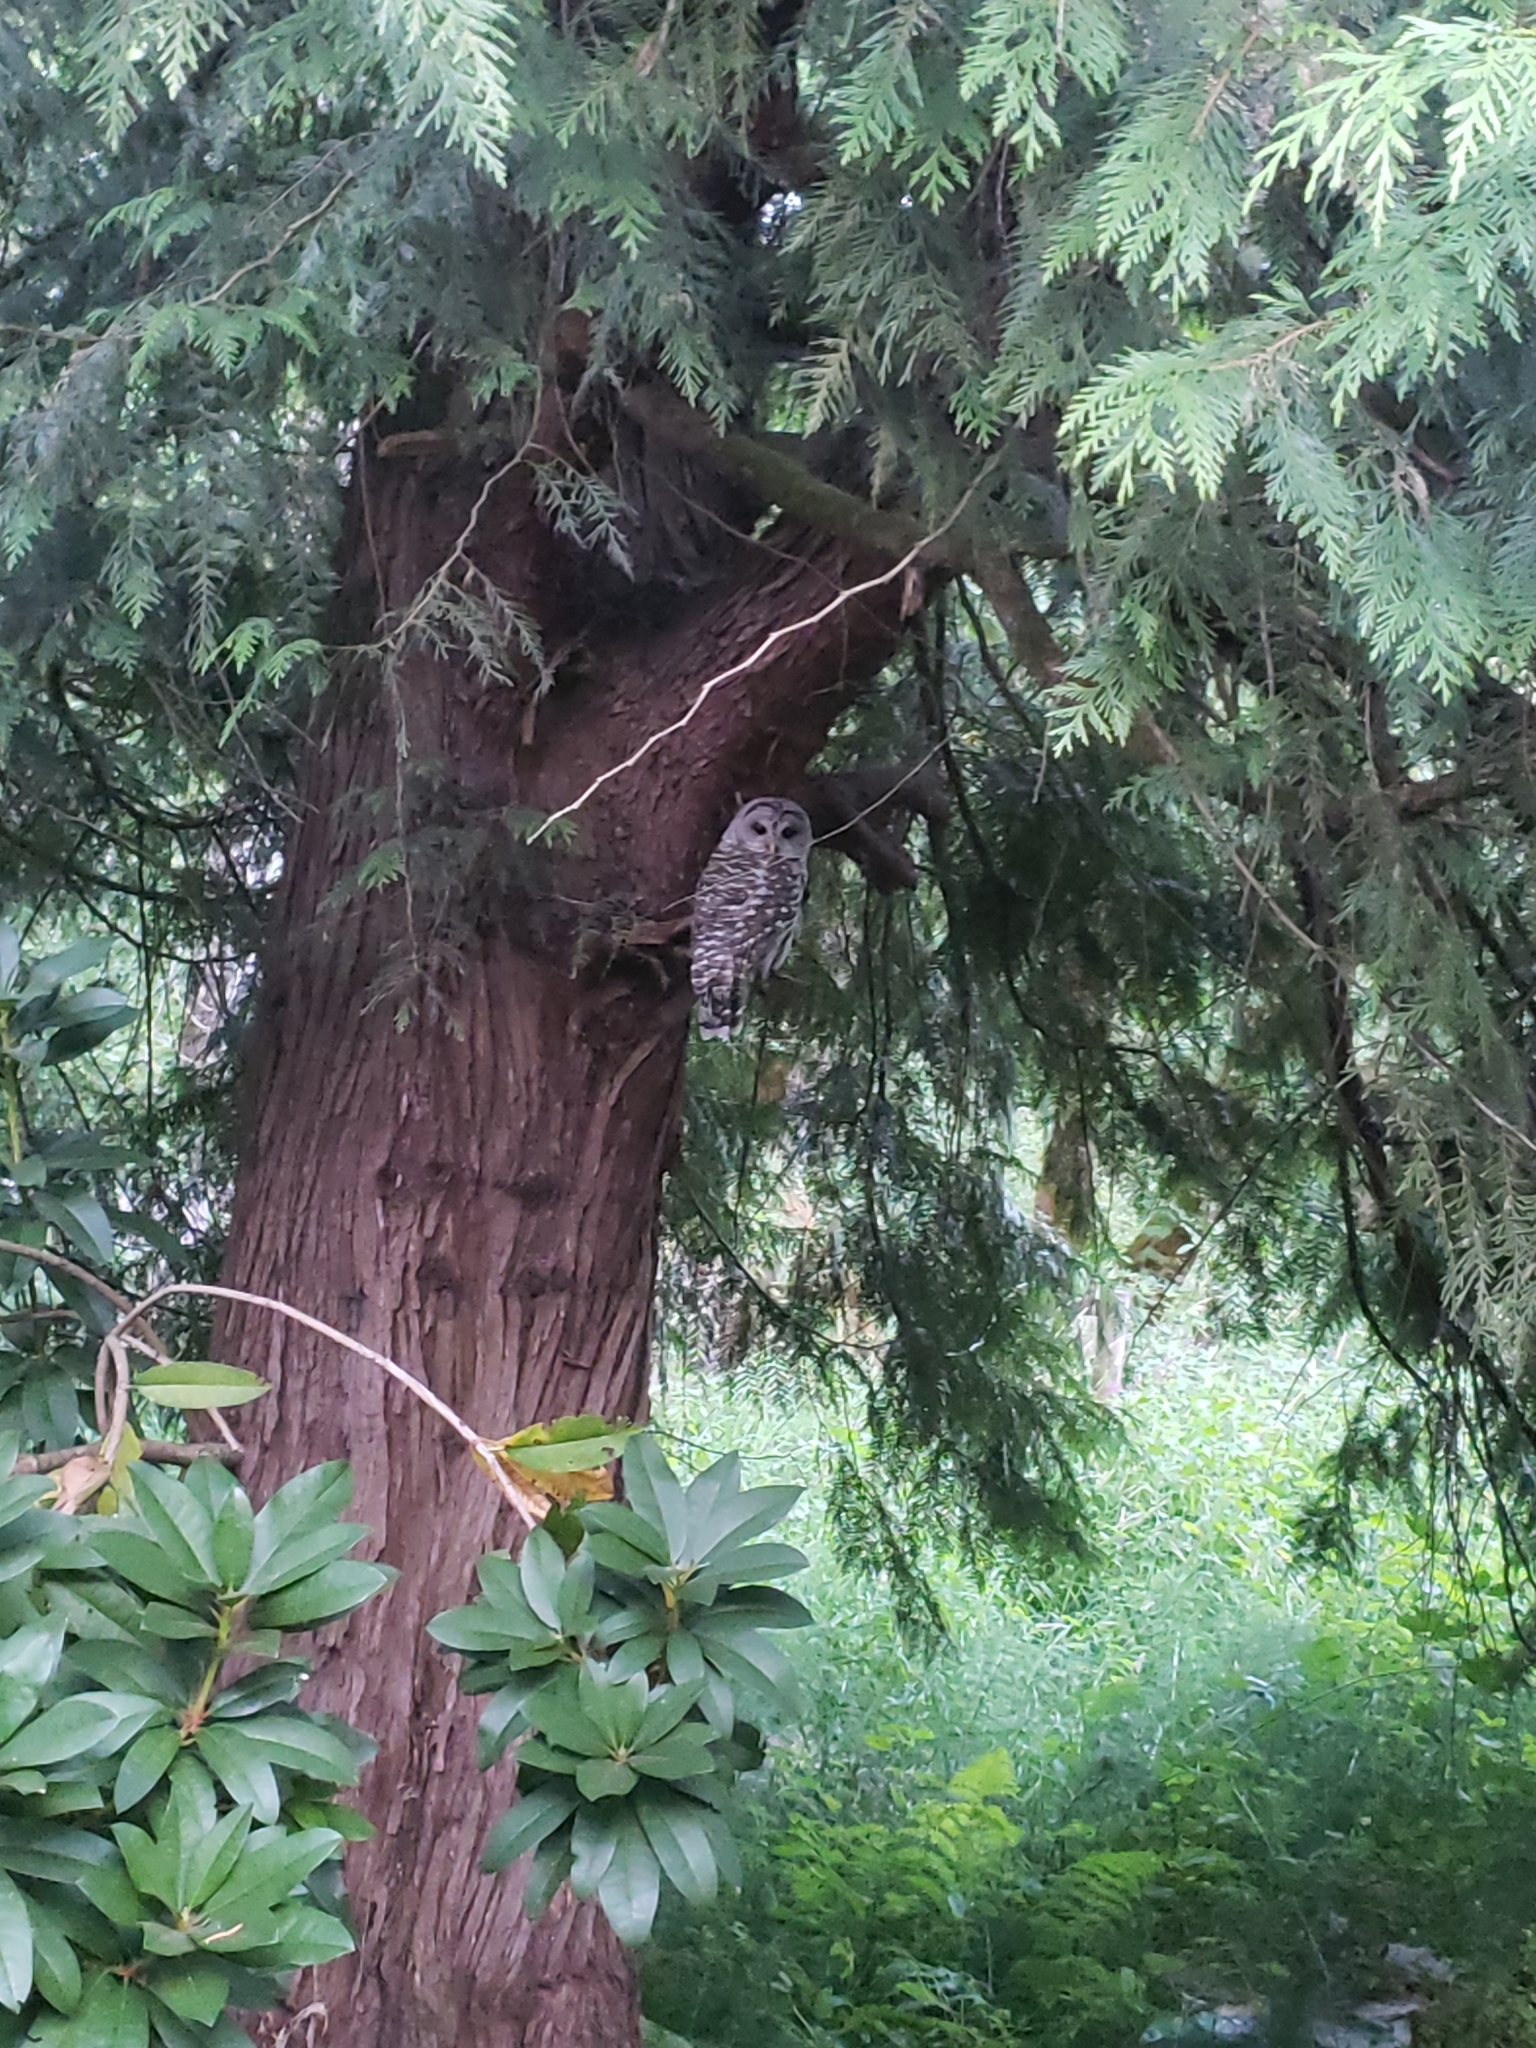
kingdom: Animalia
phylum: Chordata
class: Aves
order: Strigiformes
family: Strigidae
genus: Strix
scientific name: Strix varia
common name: Barred owl
